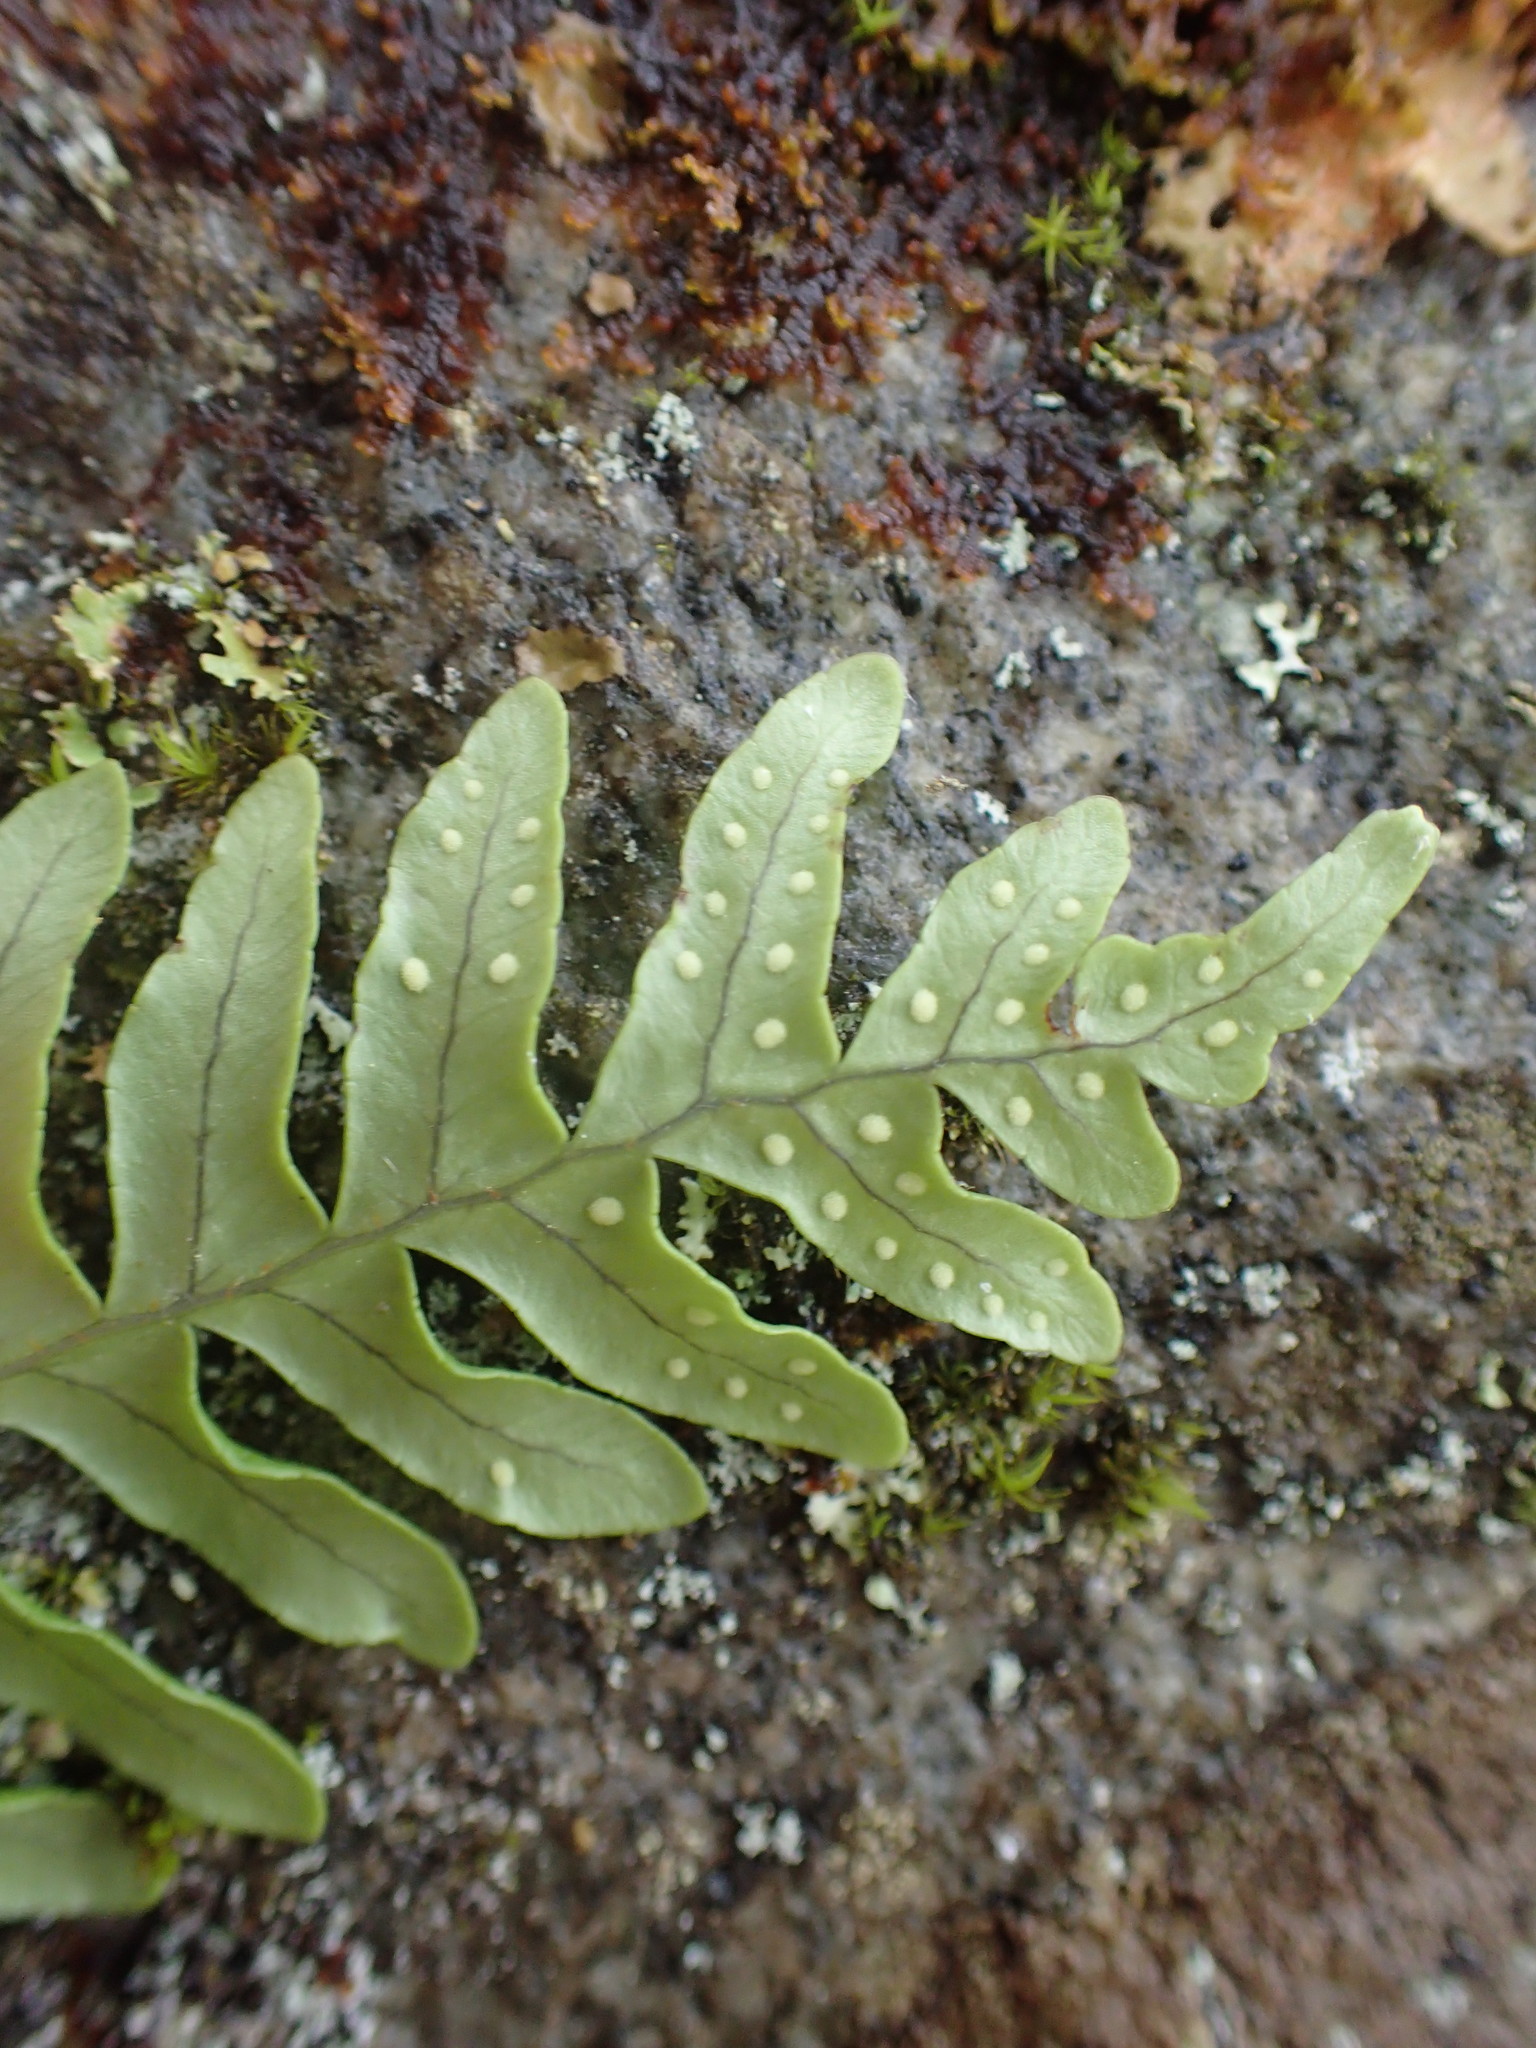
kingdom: Plantae
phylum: Tracheophyta
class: Polypodiopsida
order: Polypodiales
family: Polypodiaceae
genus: Polypodium
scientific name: Polypodium virginianum
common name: American wall fern
